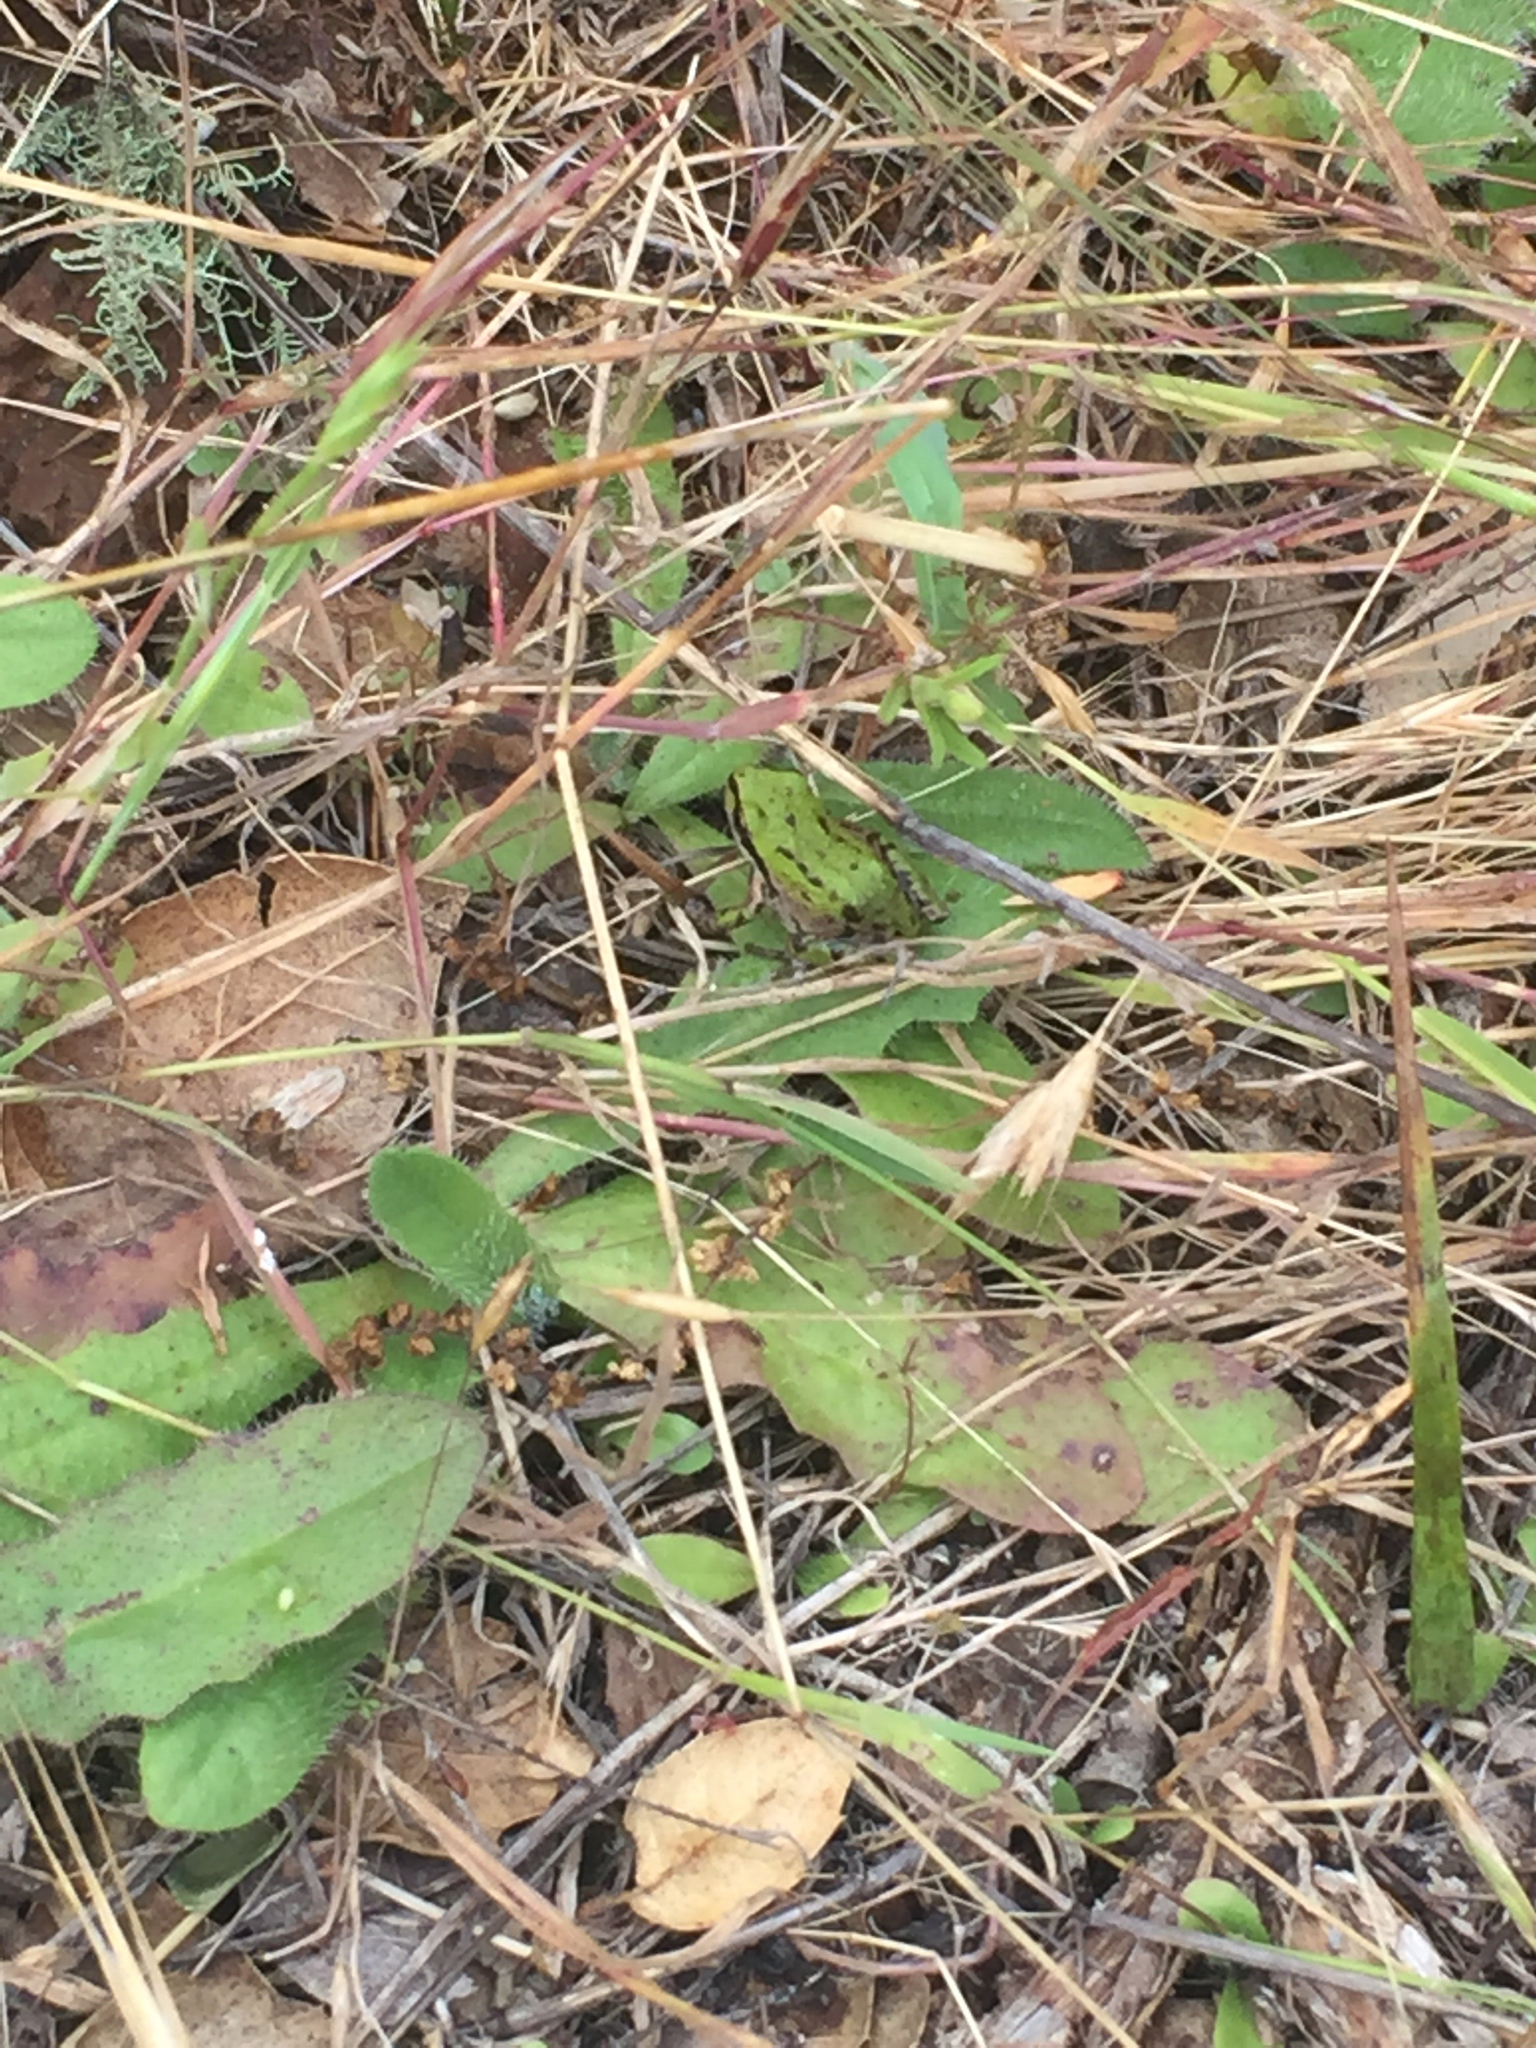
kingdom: Animalia
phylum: Chordata
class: Amphibia
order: Anura
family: Hylidae
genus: Pseudacris
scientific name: Pseudacris regilla
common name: Pacific chorus frog
